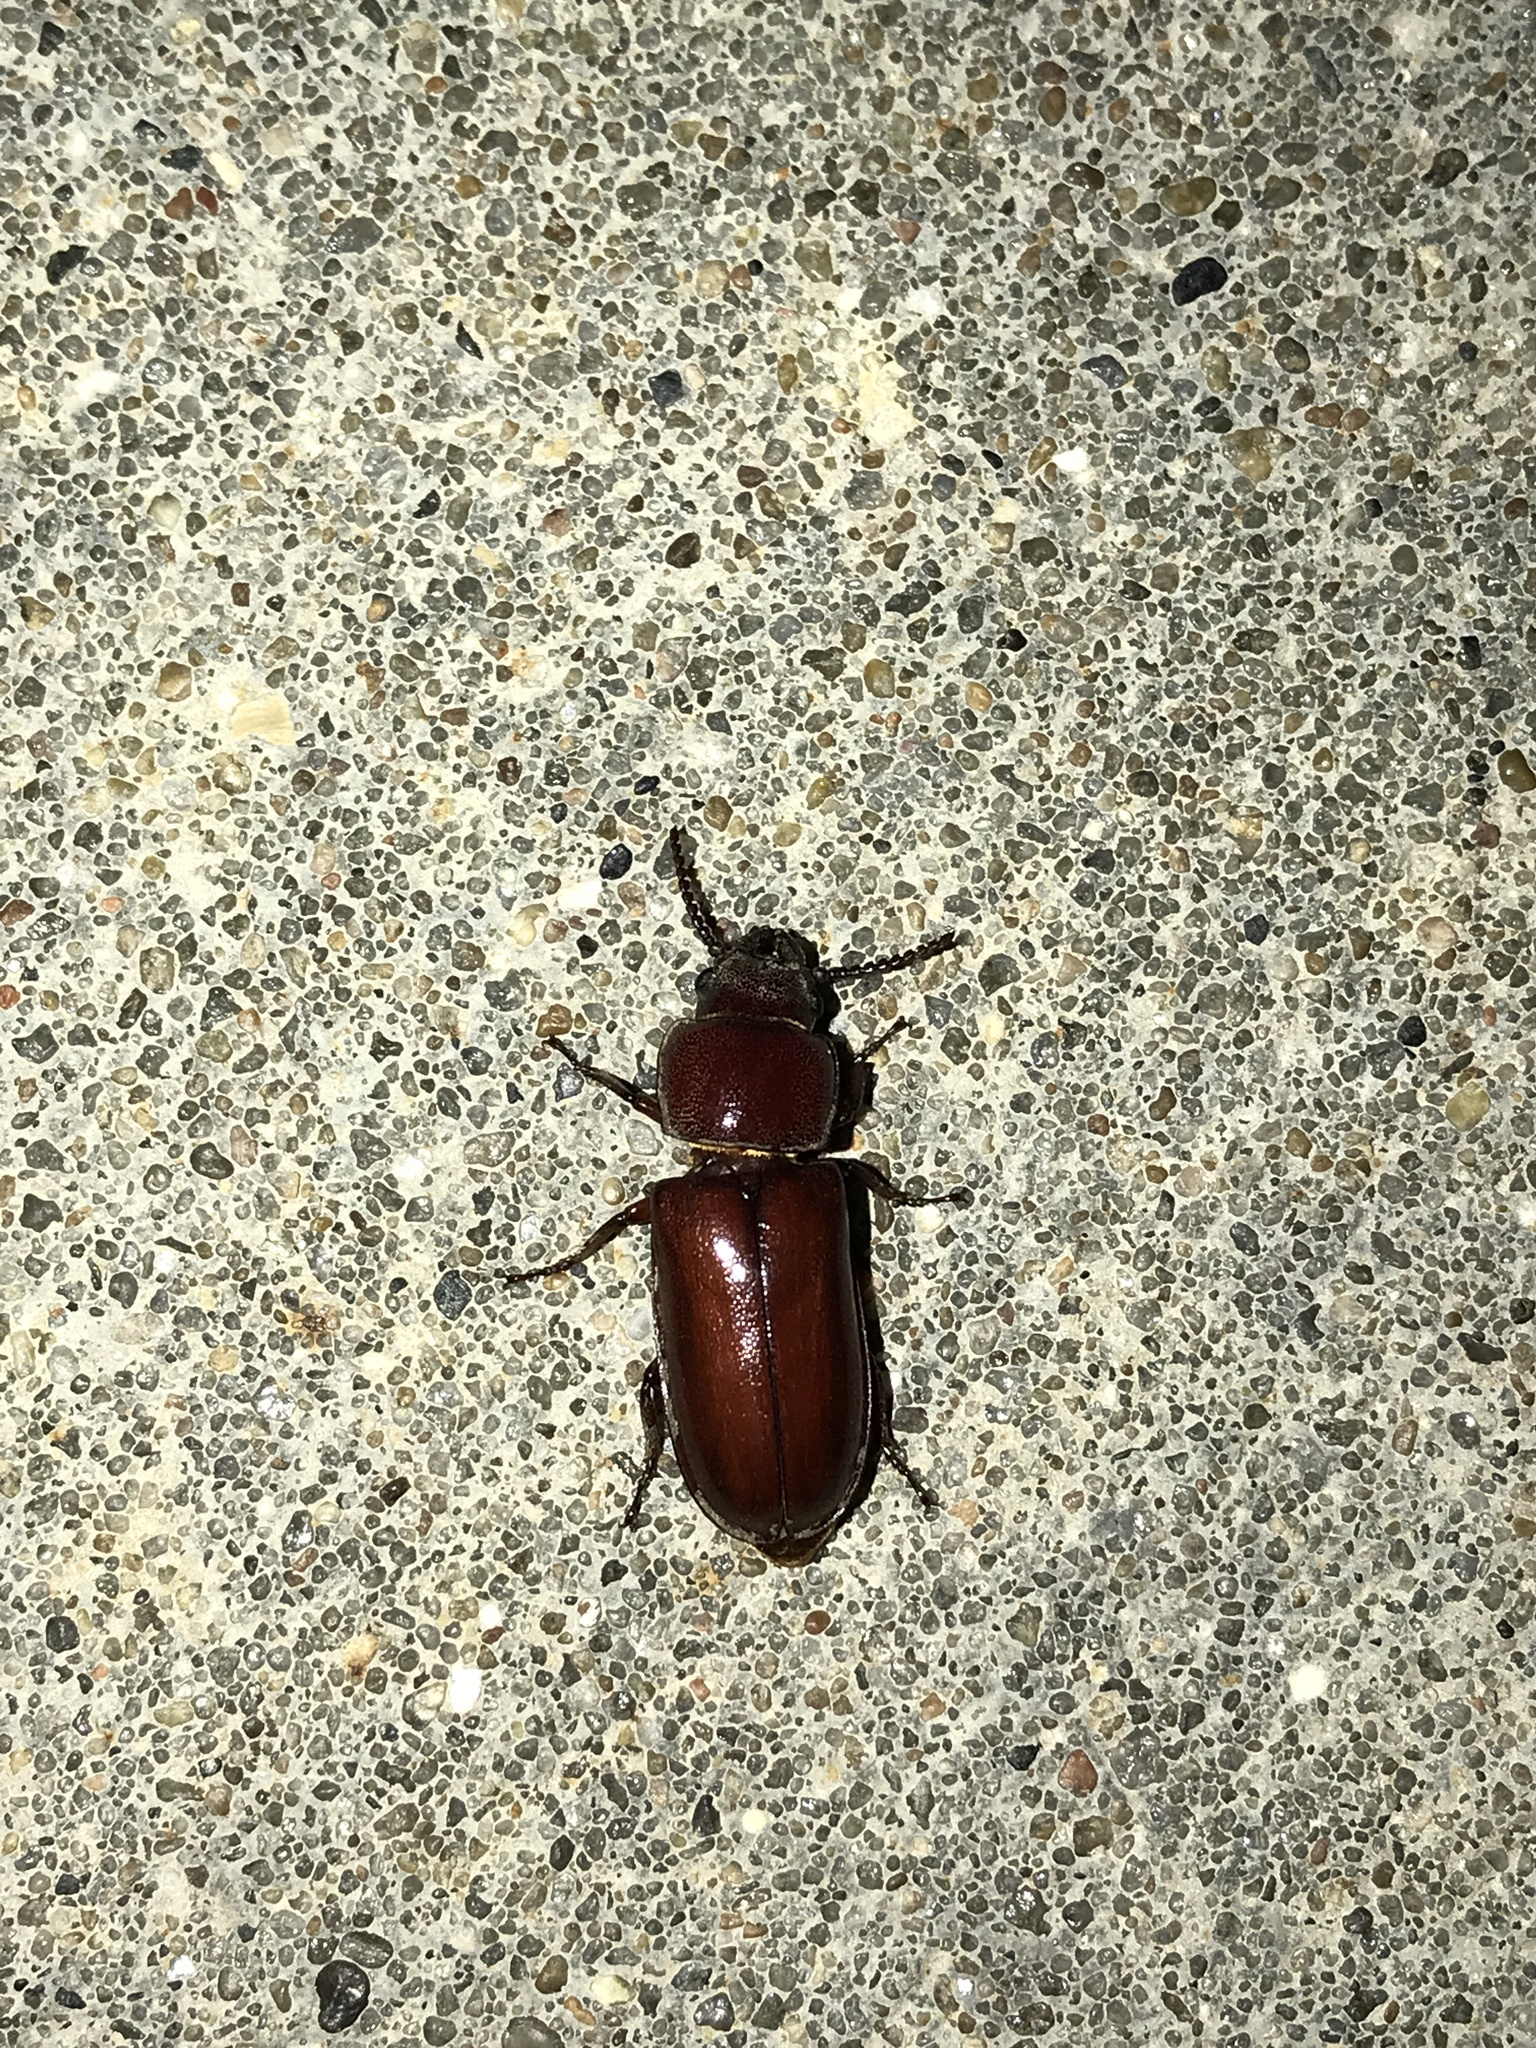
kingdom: Animalia
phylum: Arthropoda
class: Insecta
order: Coleoptera
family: Cerambycidae
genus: Neandra
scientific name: Neandra brunnea
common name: Pole borer
